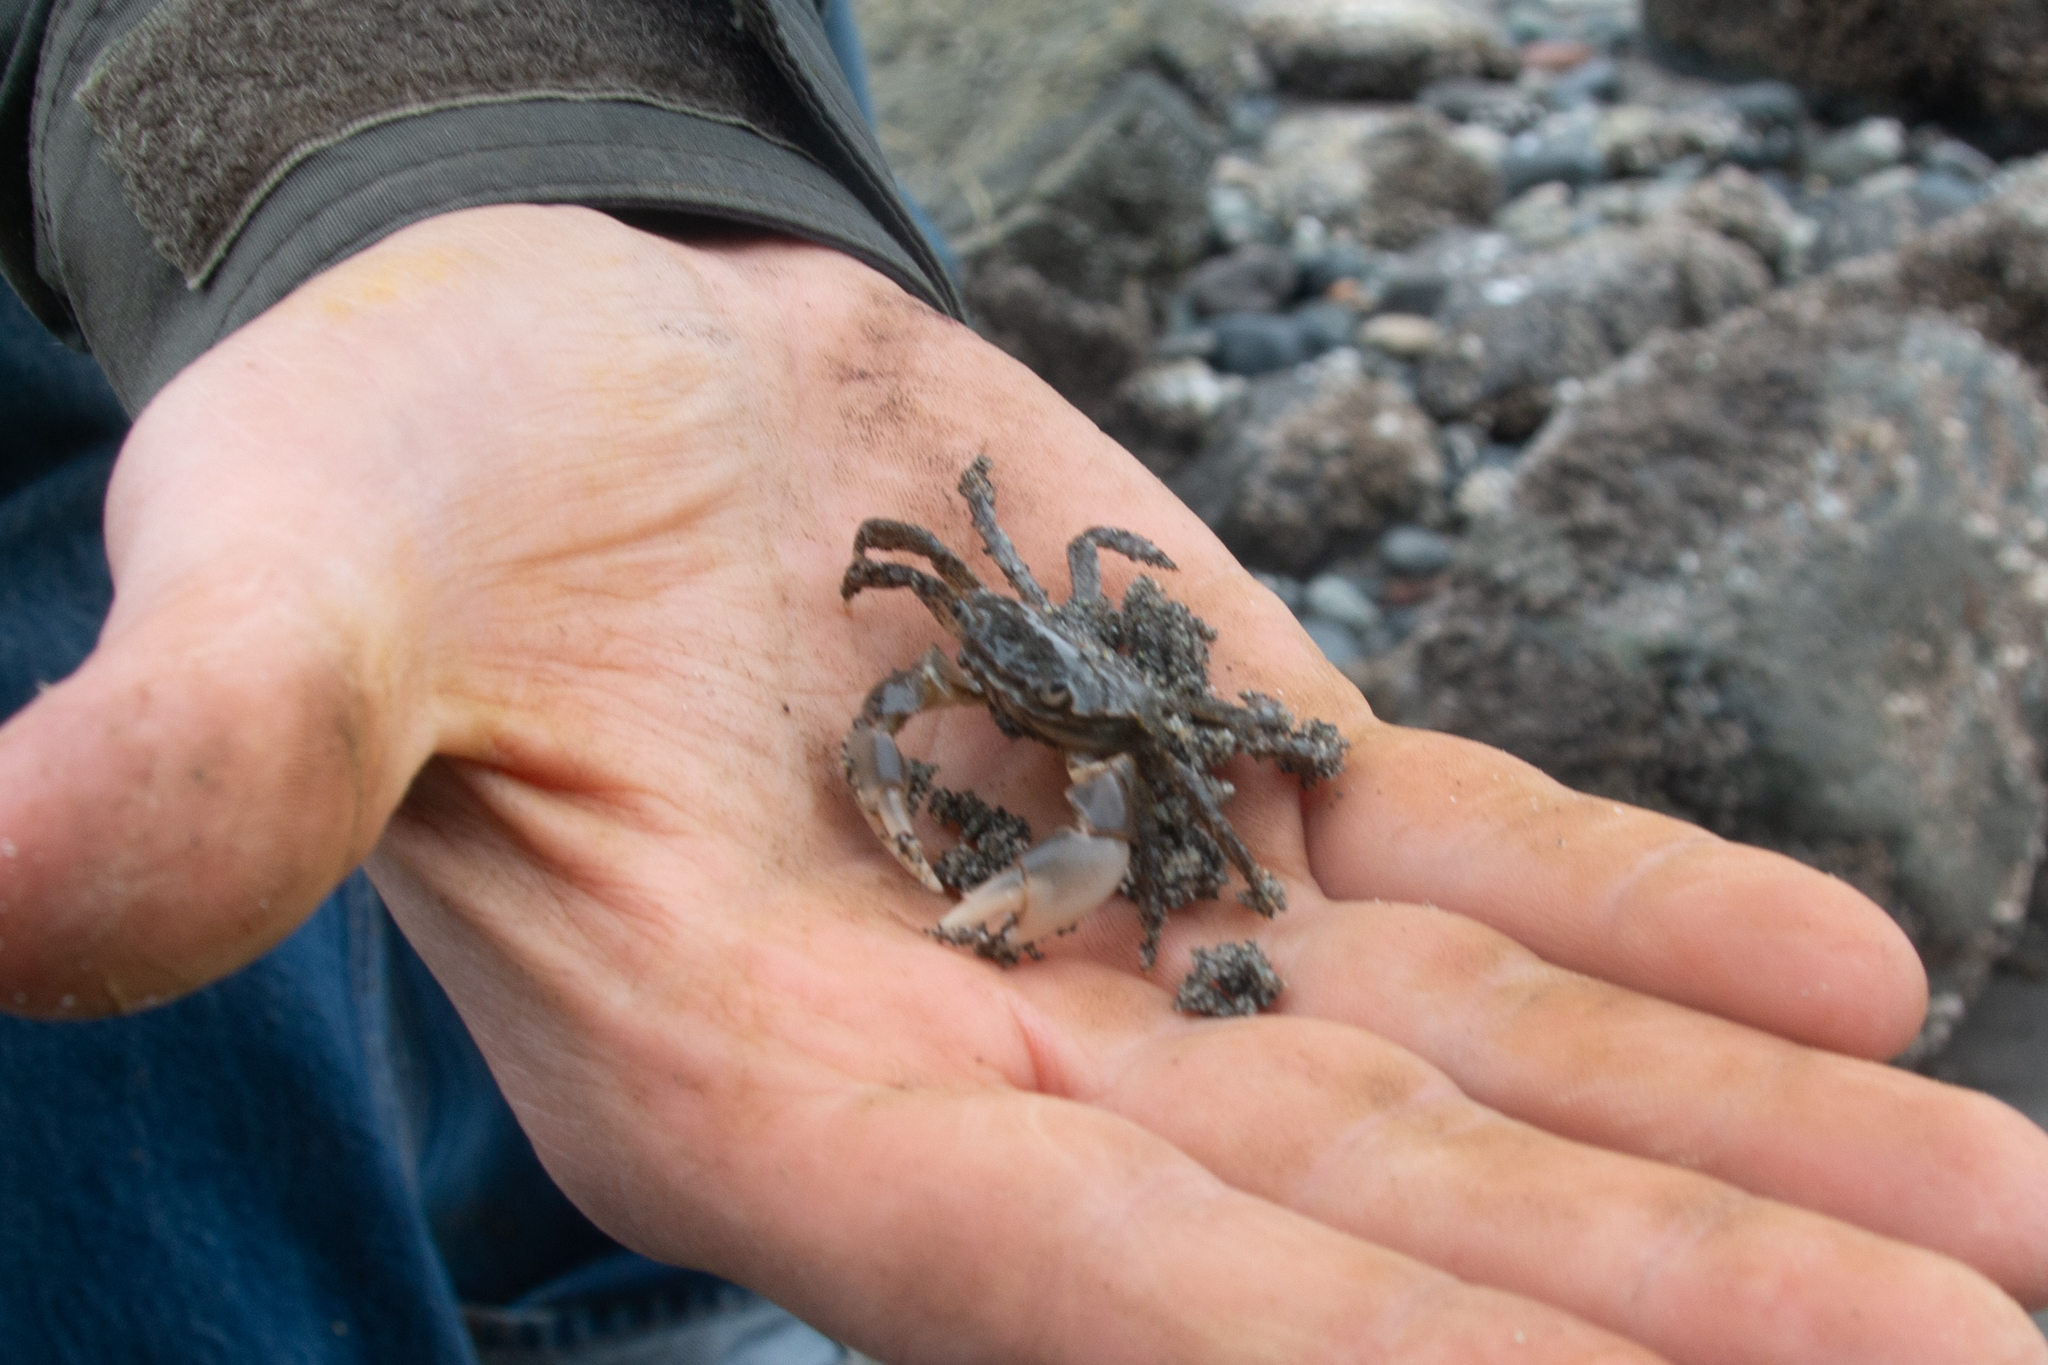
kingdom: Animalia
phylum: Arthropoda
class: Malacostraca
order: Decapoda
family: Varunidae
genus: Hemigrapsus
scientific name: Hemigrapsus oregonensis
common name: Yellow shore crab
